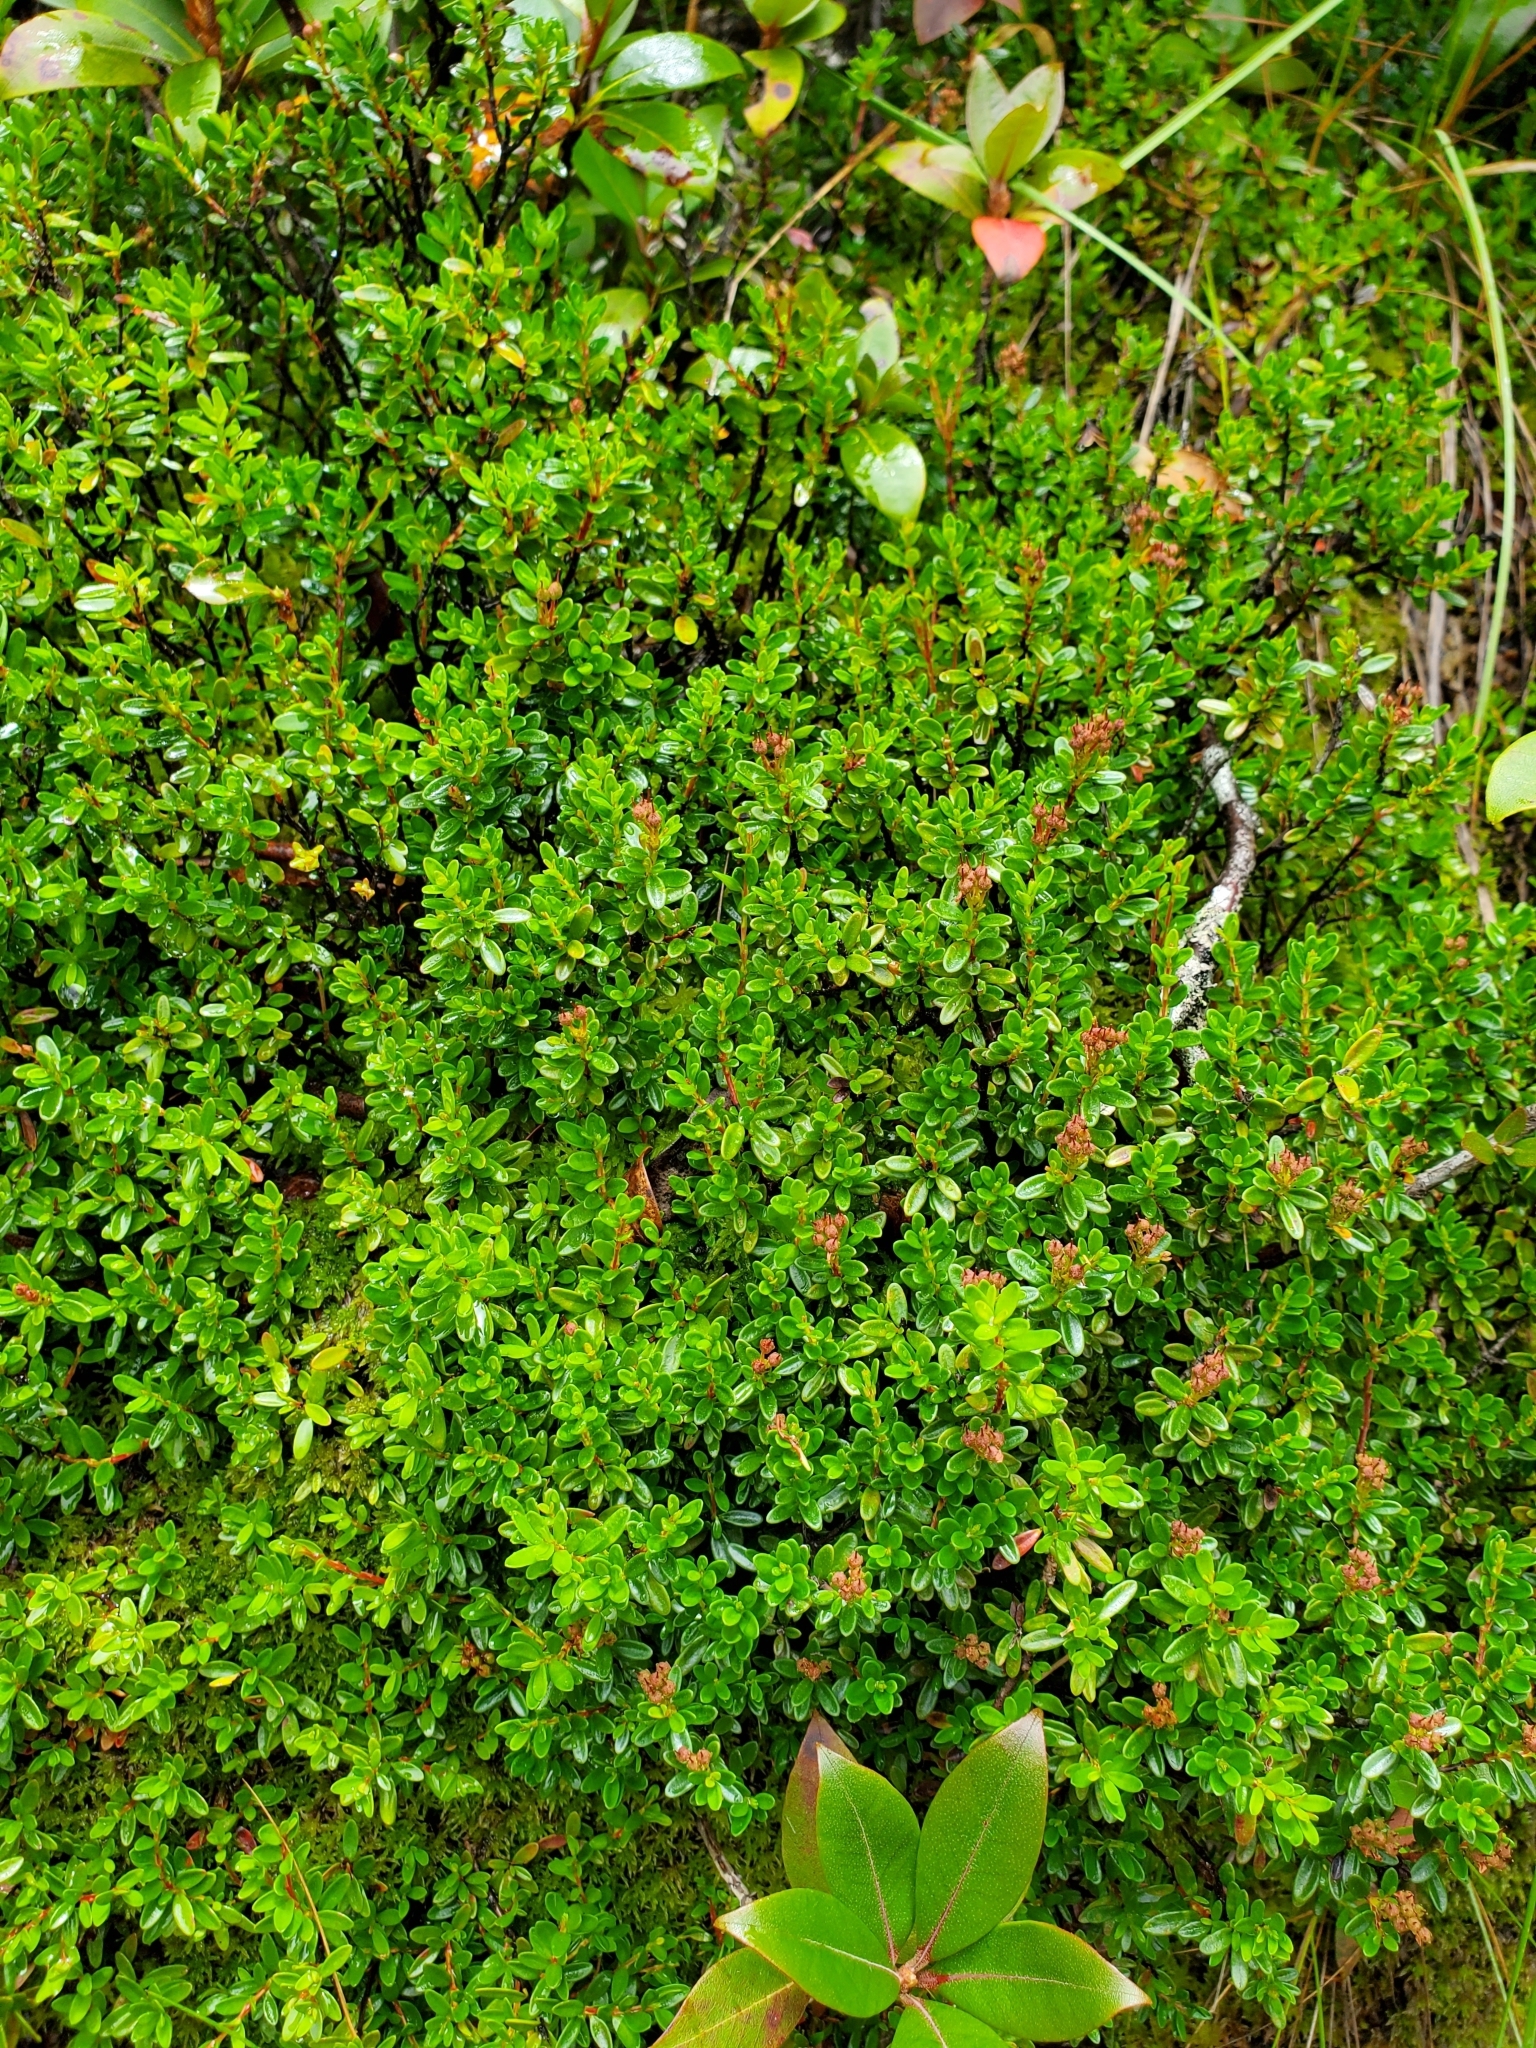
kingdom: Plantae
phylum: Tracheophyta
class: Magnoliopsida
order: Ericales
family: Ericaceae
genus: Kalmia
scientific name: Kalmia buxifolia
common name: Sandmyrtle
